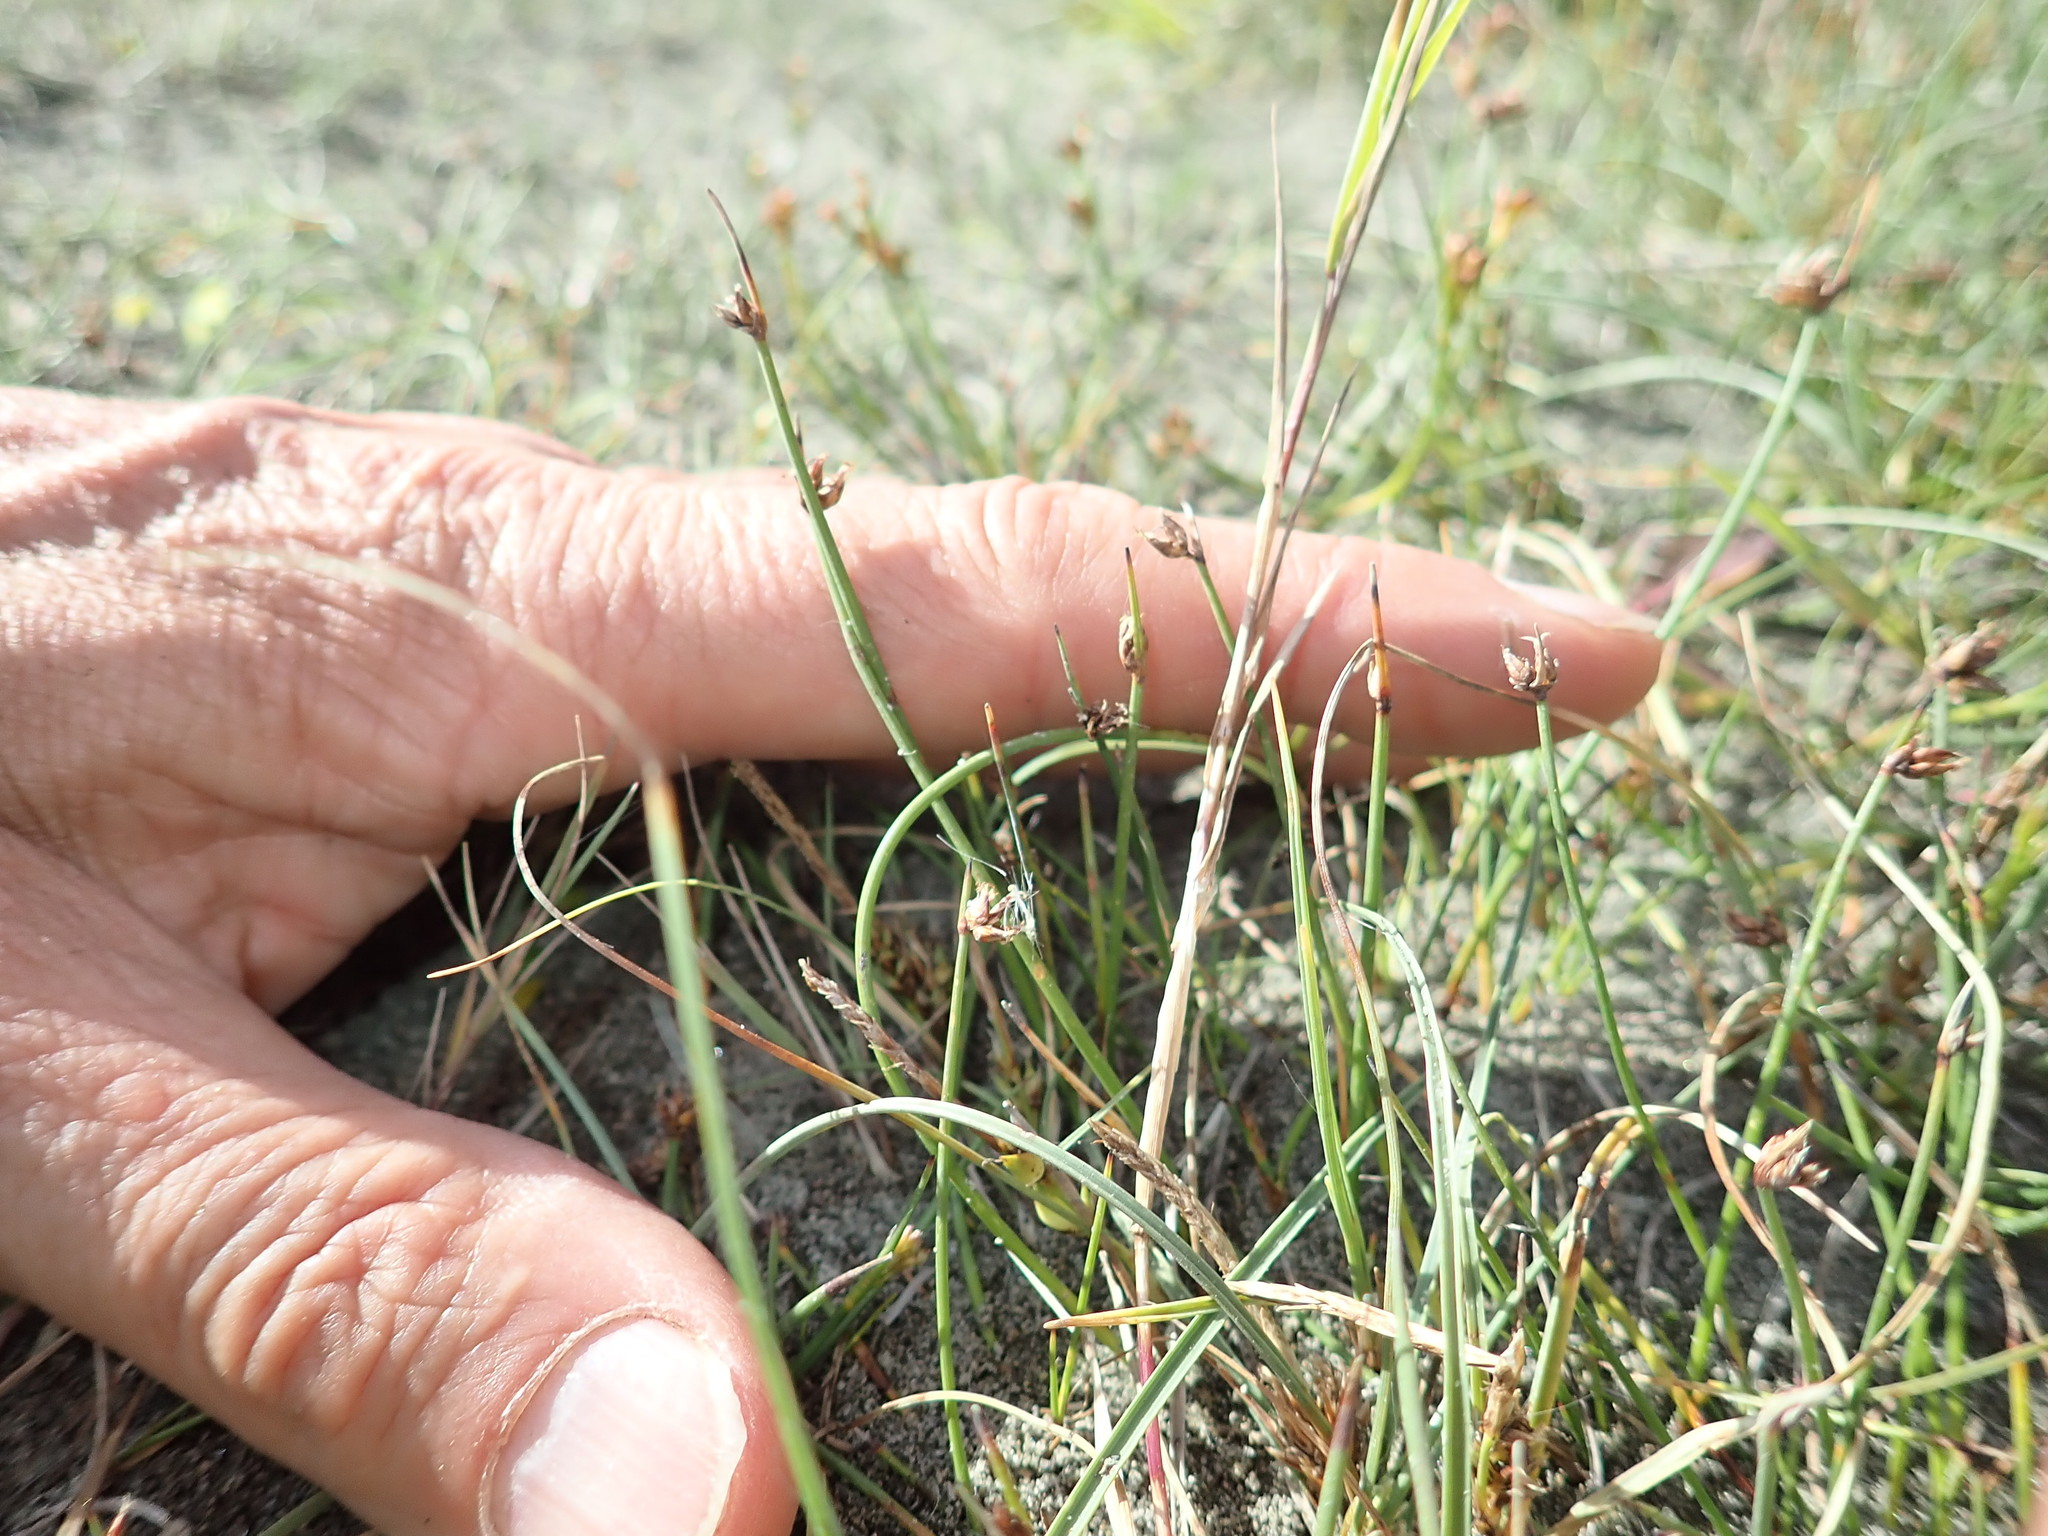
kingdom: Plantae
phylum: Tracheophyta
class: Liliopsida
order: Poales
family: Cyperaceae
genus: Schoenus
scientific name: Schoenus nitens
